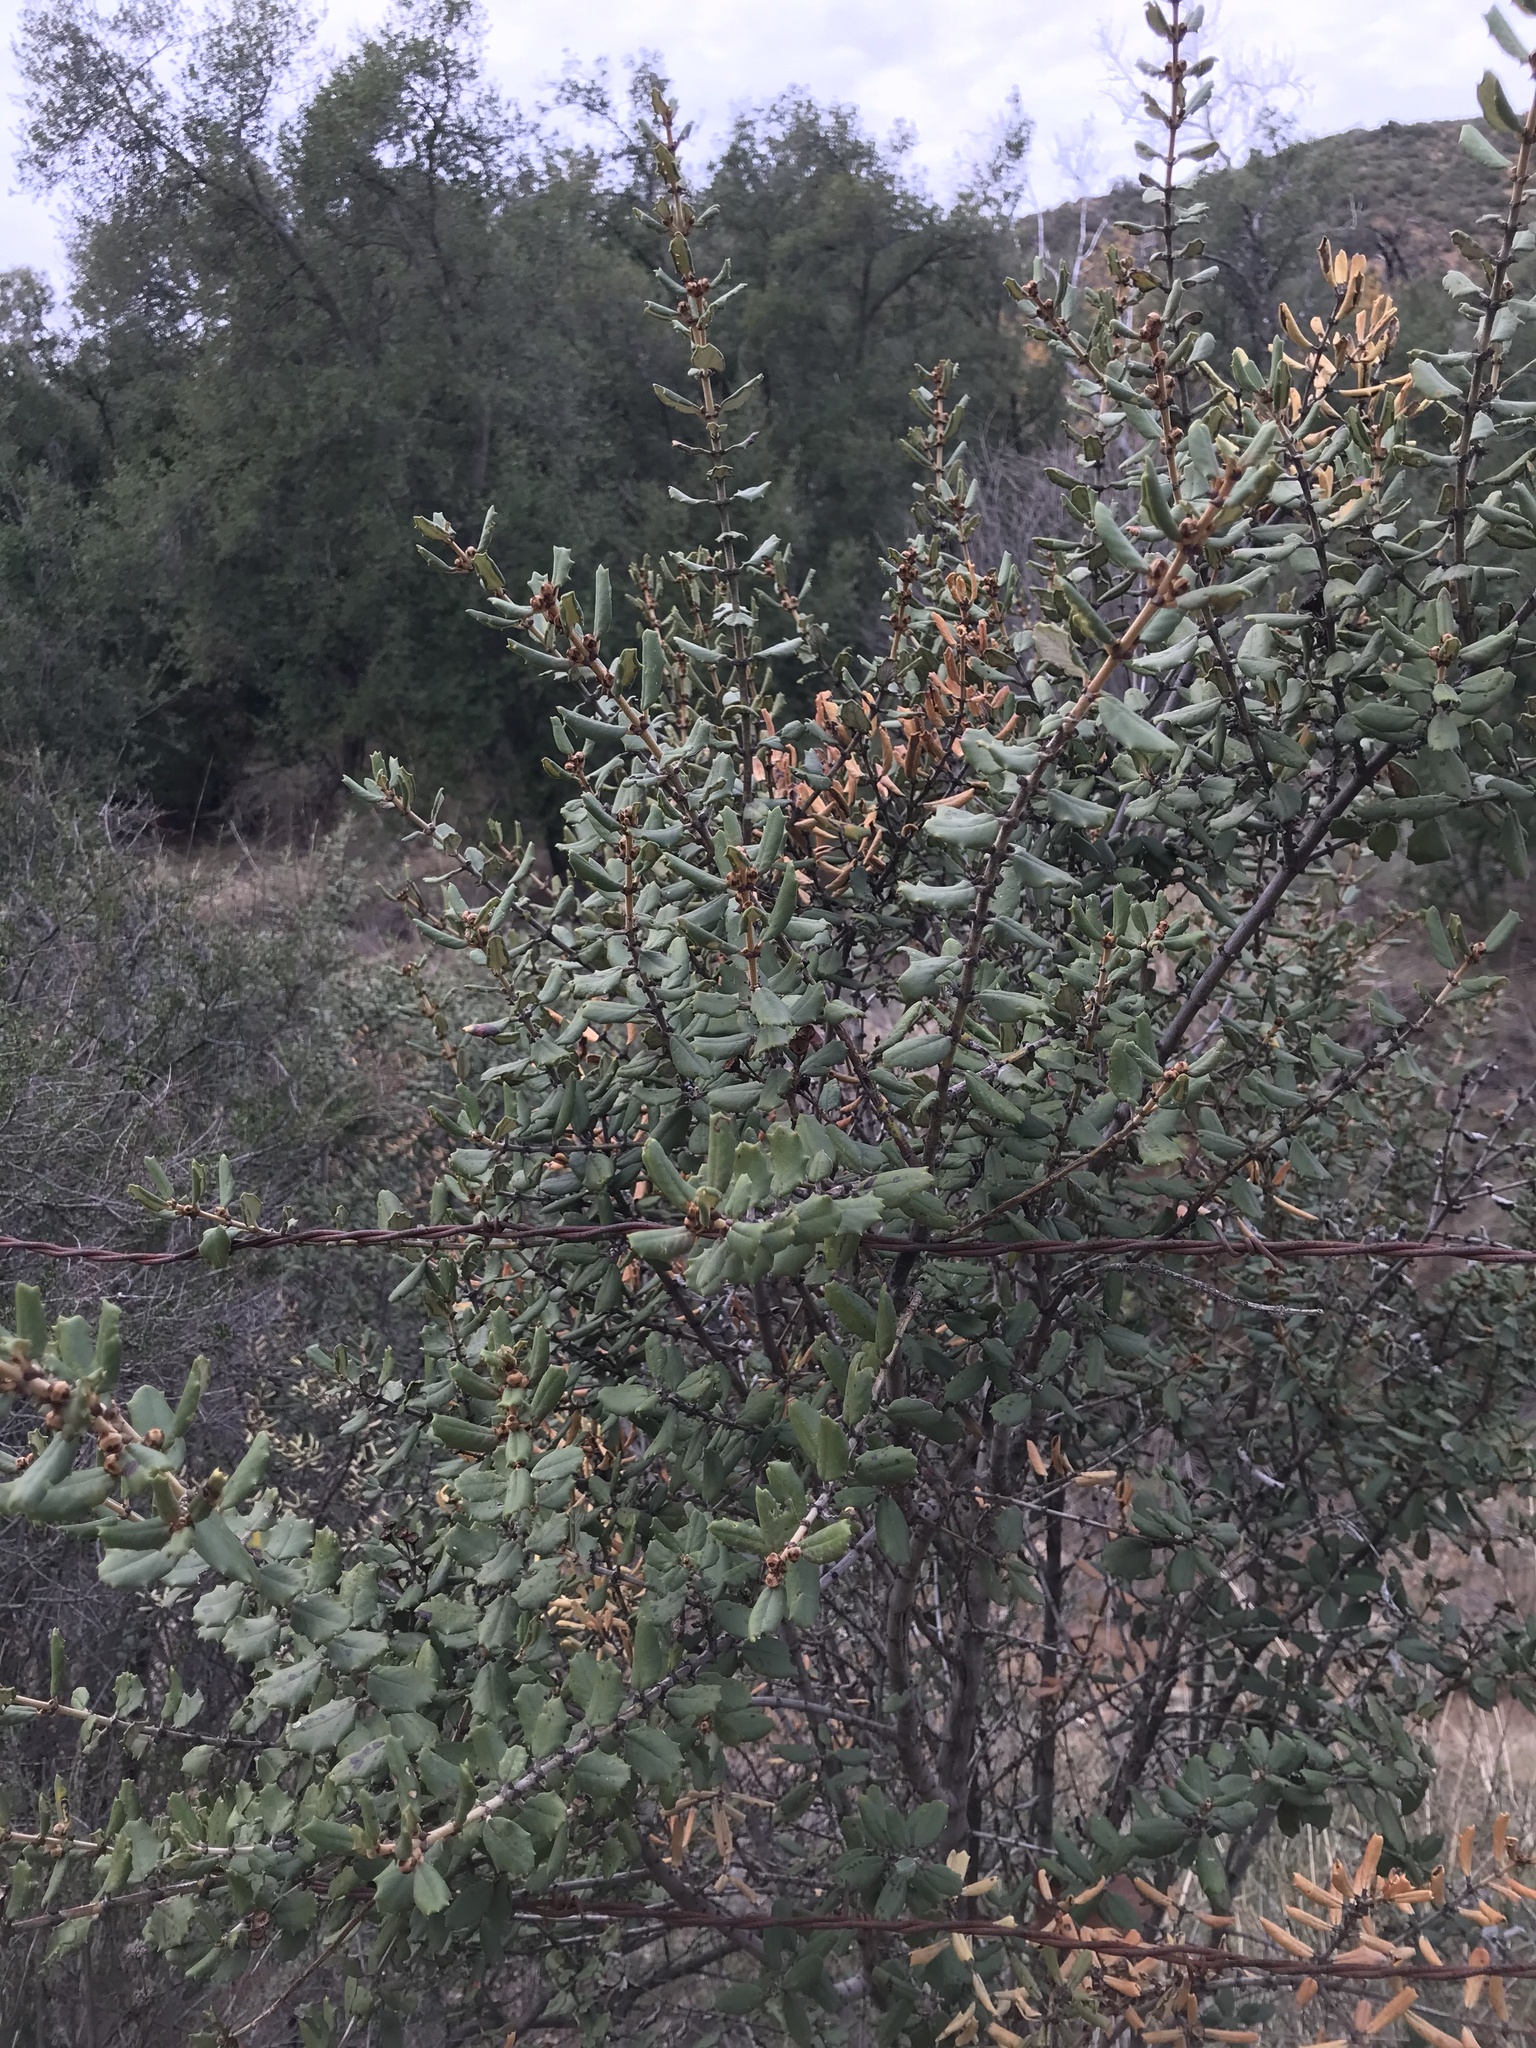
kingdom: Plantae
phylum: Tracheophyta
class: Magnoliopsida
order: Rosales
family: Rhamnaceae
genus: Ceanothus
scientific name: Ceanothus crassifolius
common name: Hoaryleaf ceanothus
